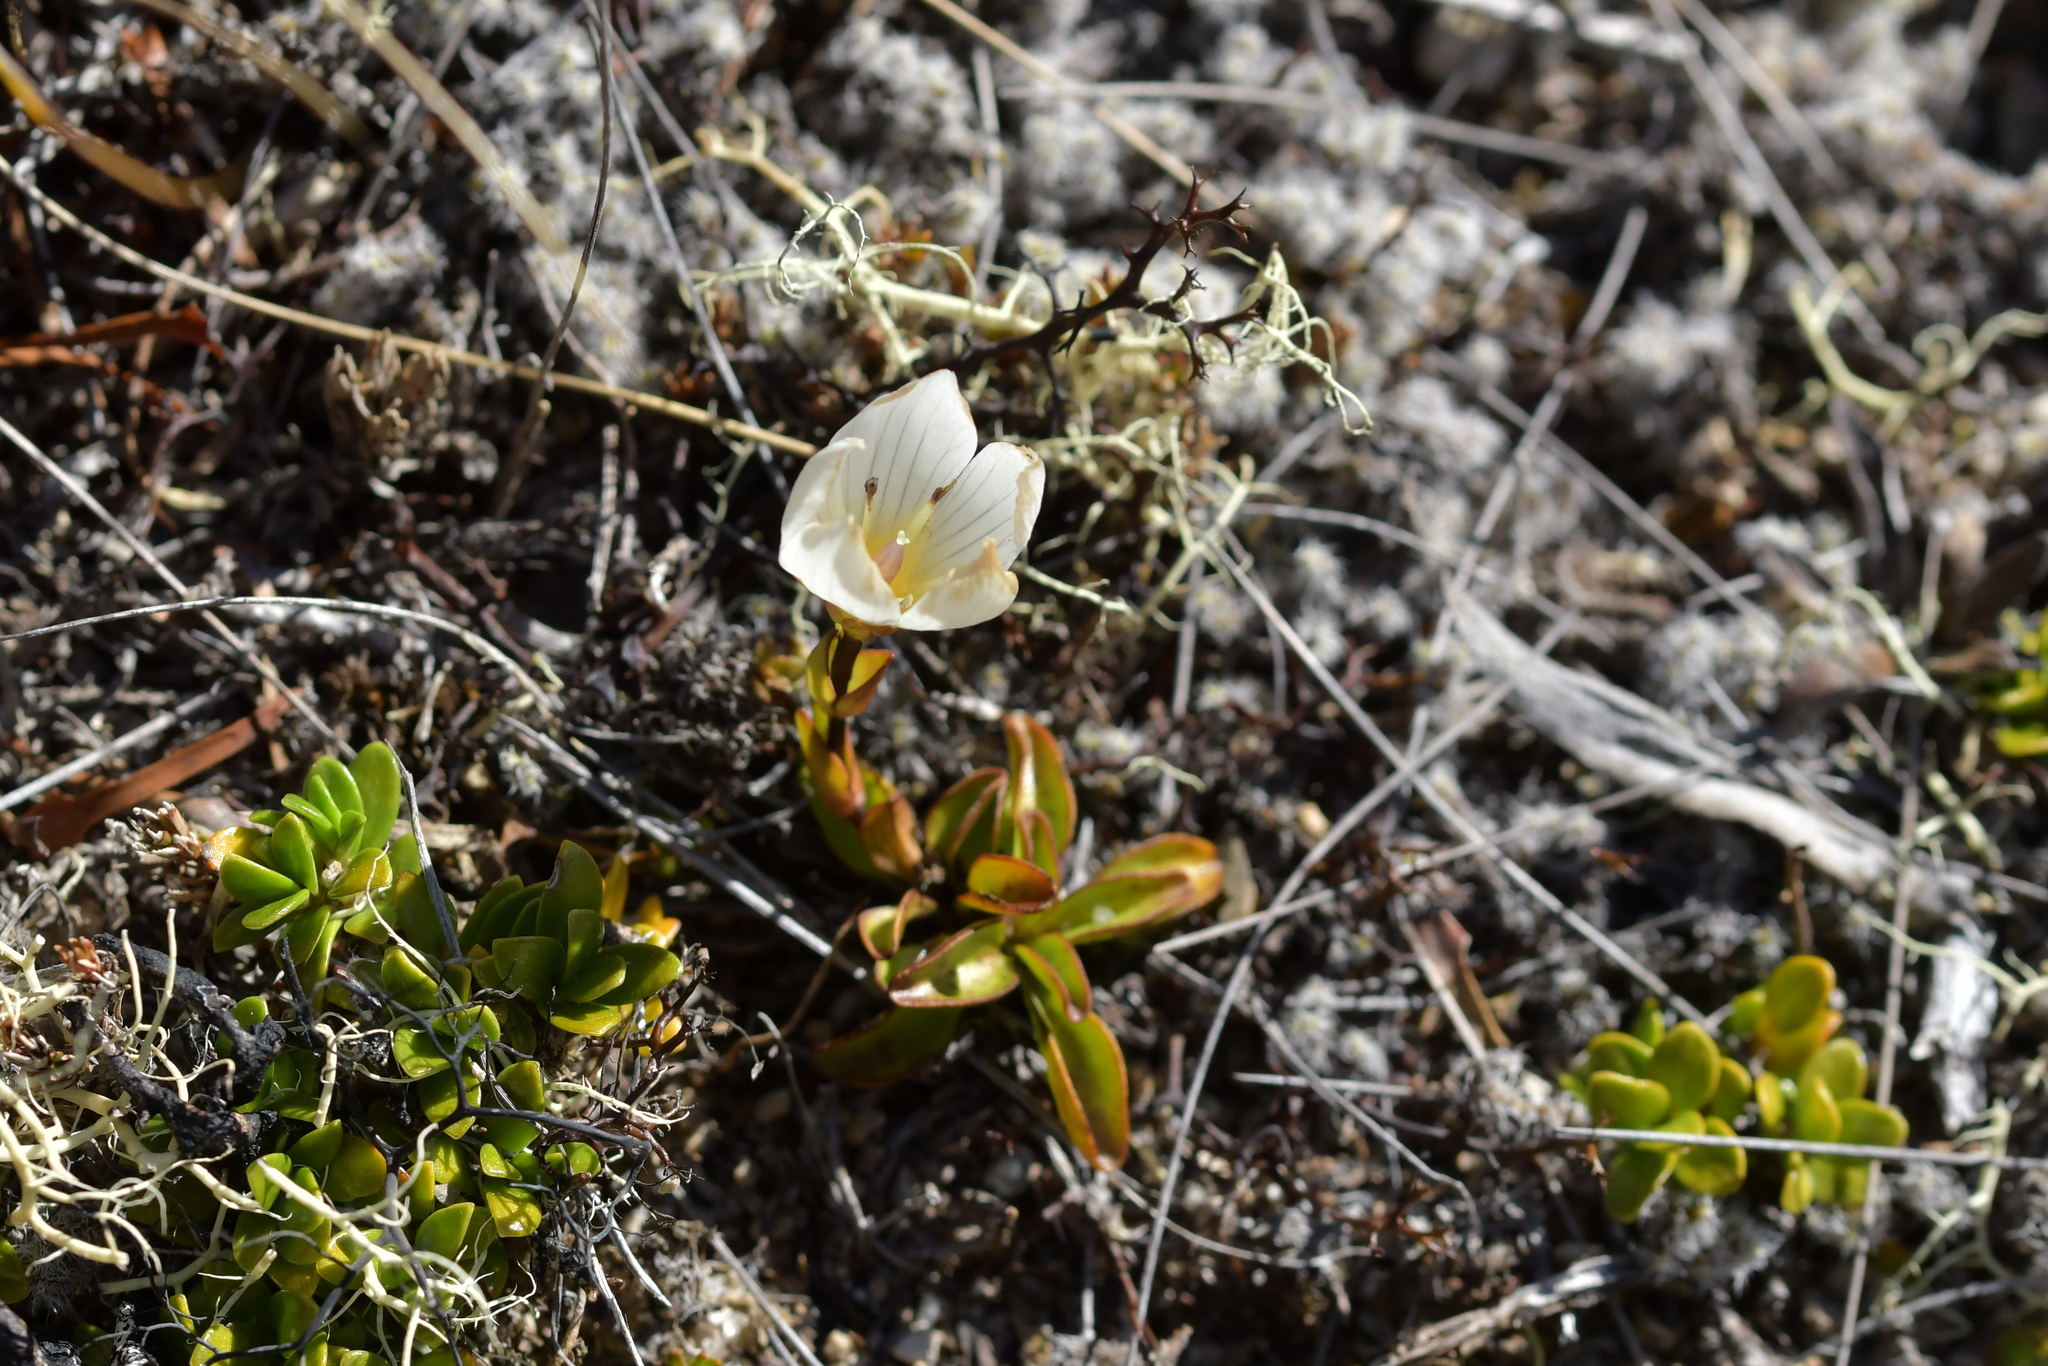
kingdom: Plantae
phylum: Tracheophyta
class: Magnoliopsida
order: Gentianales
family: Gentianaceae
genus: Gentianella
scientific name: Gentianella bellidifolia
